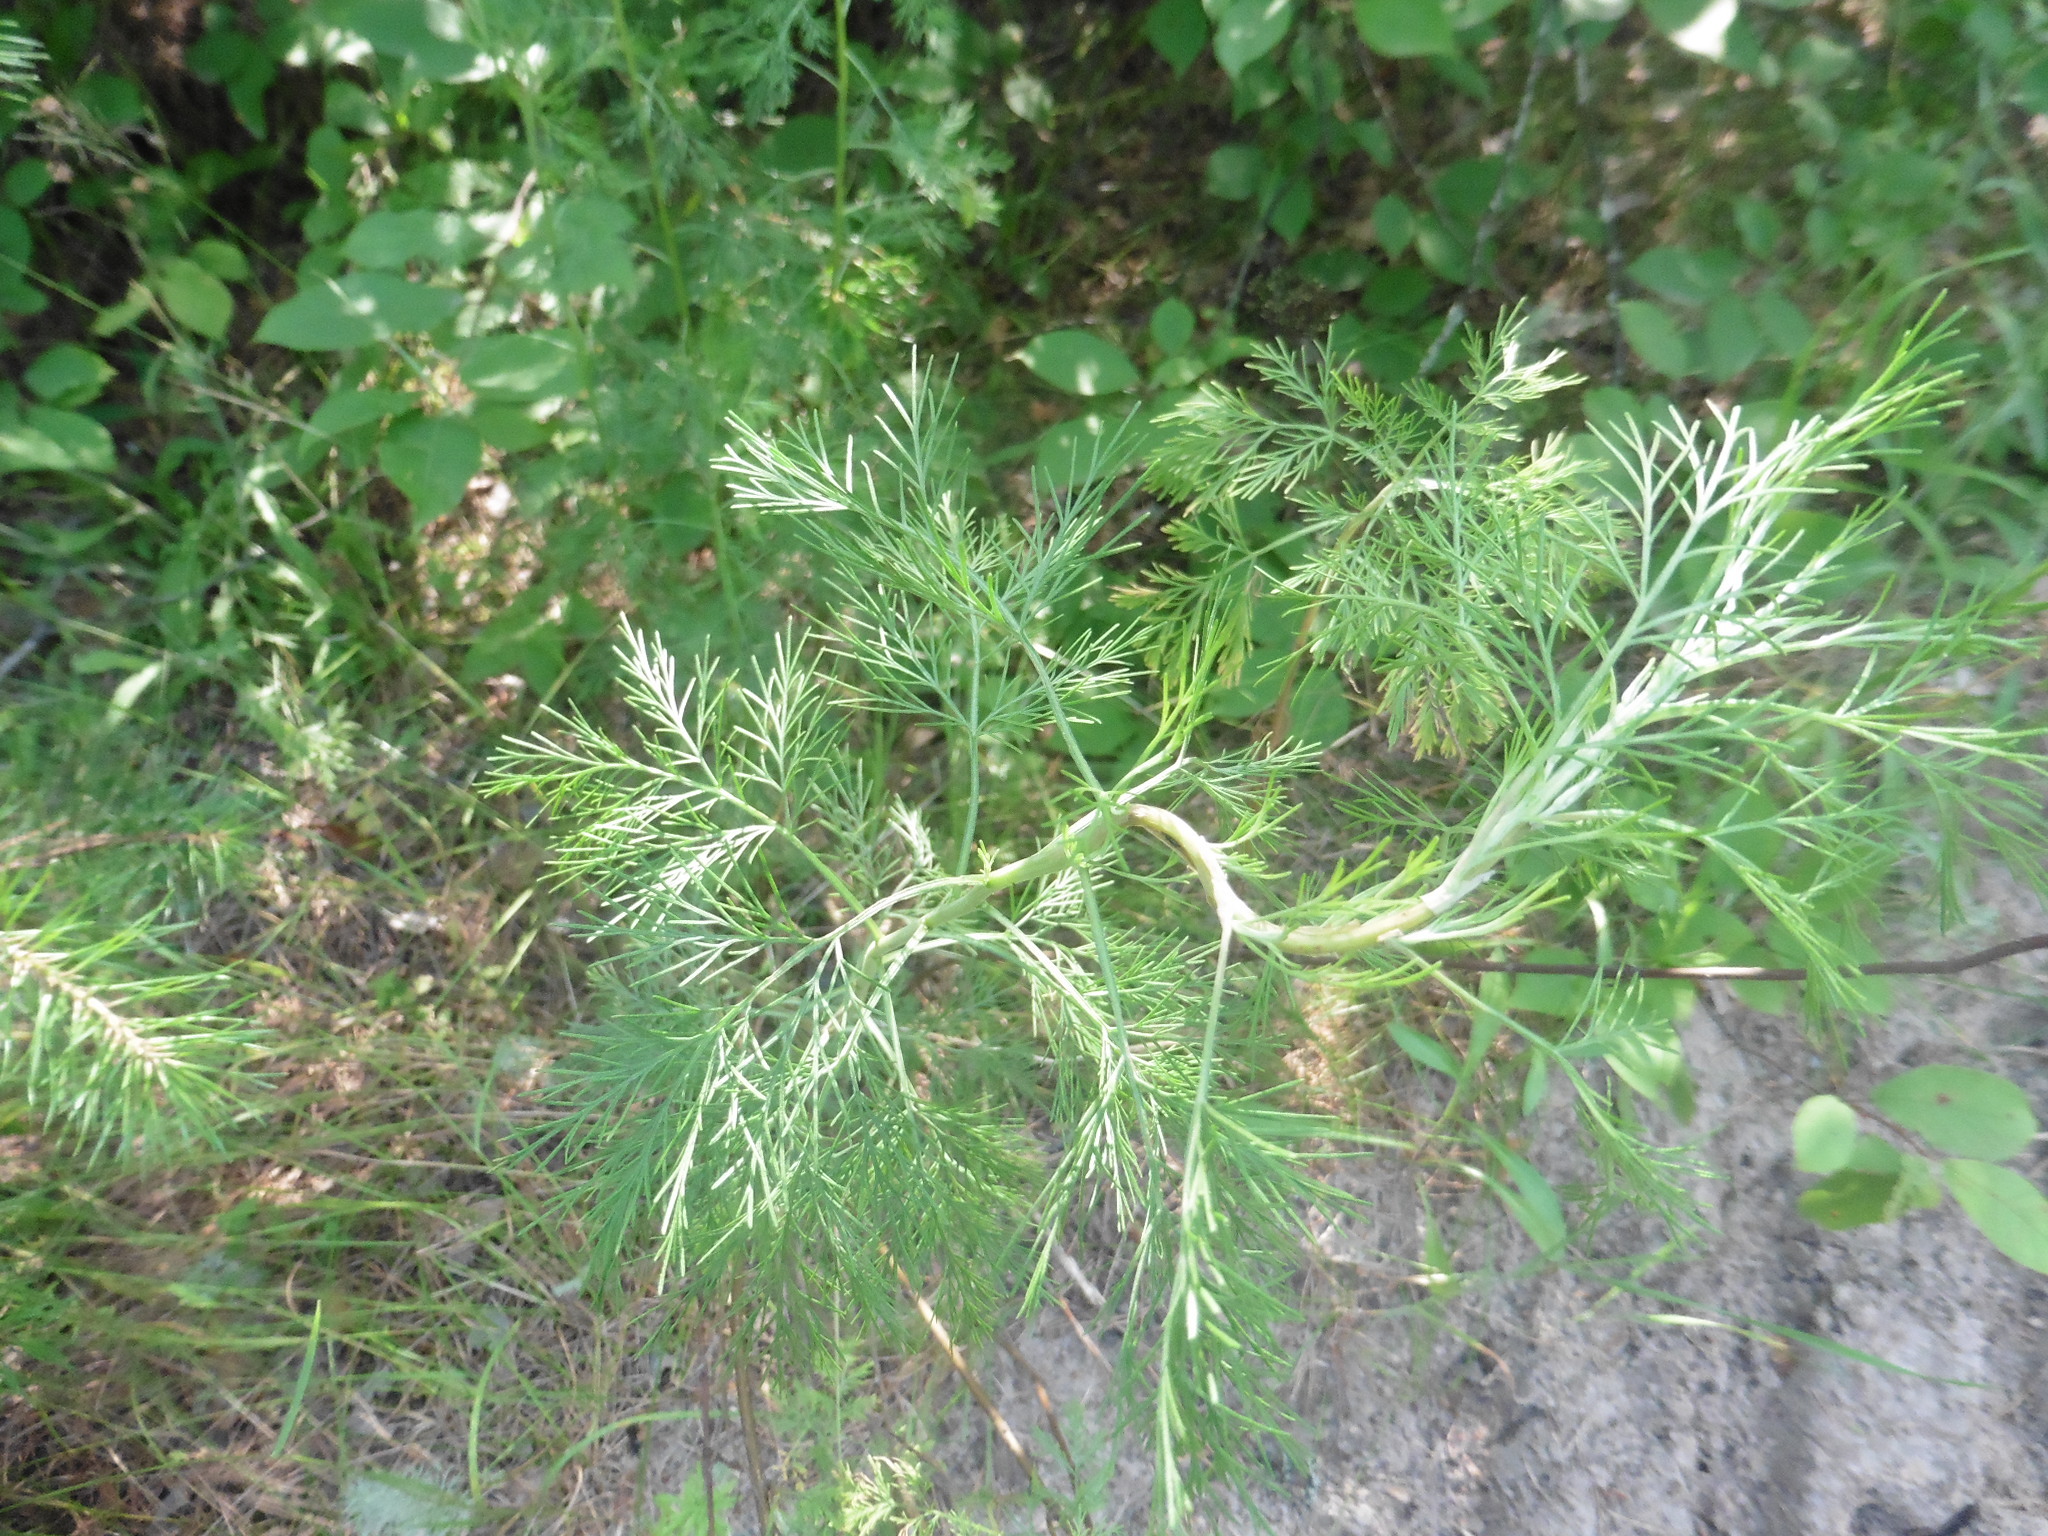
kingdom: Plantae
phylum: Tracheophyta
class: Magnoliopsida
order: Asterales
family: Asteraceae
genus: Artemisia
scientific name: Artemisia abrotanum
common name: Southernwood
